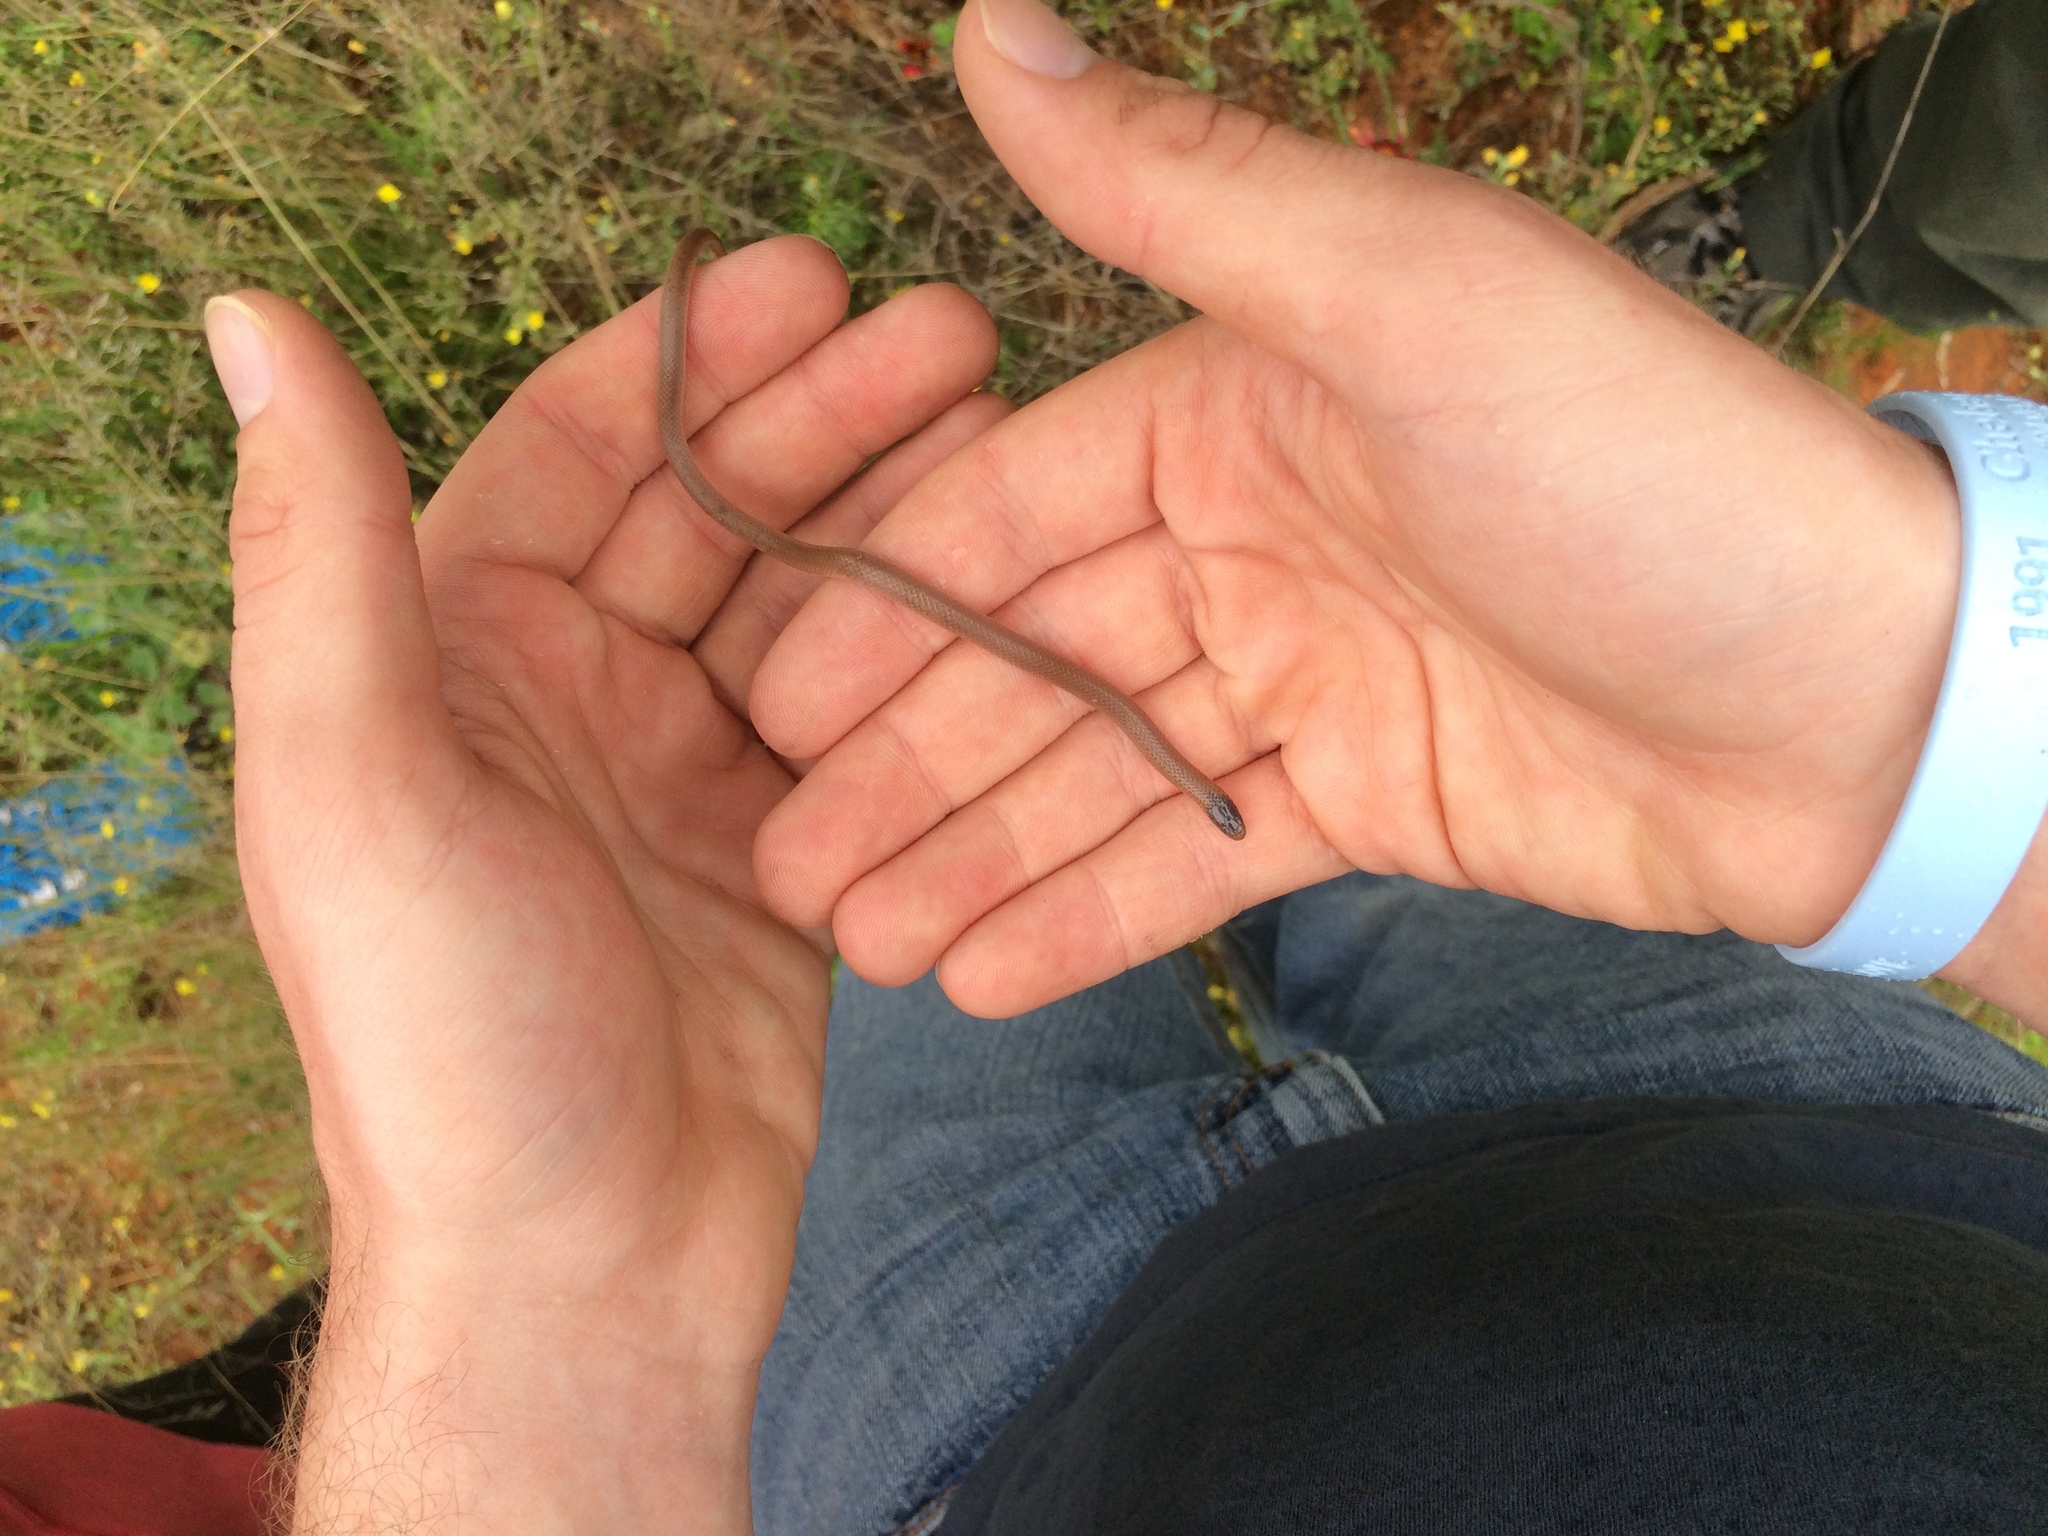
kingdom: Animalia
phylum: Chordata
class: Squamata
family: Colubridae
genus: Tantilla
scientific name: Tantilla gracilis
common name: Flathead snake
